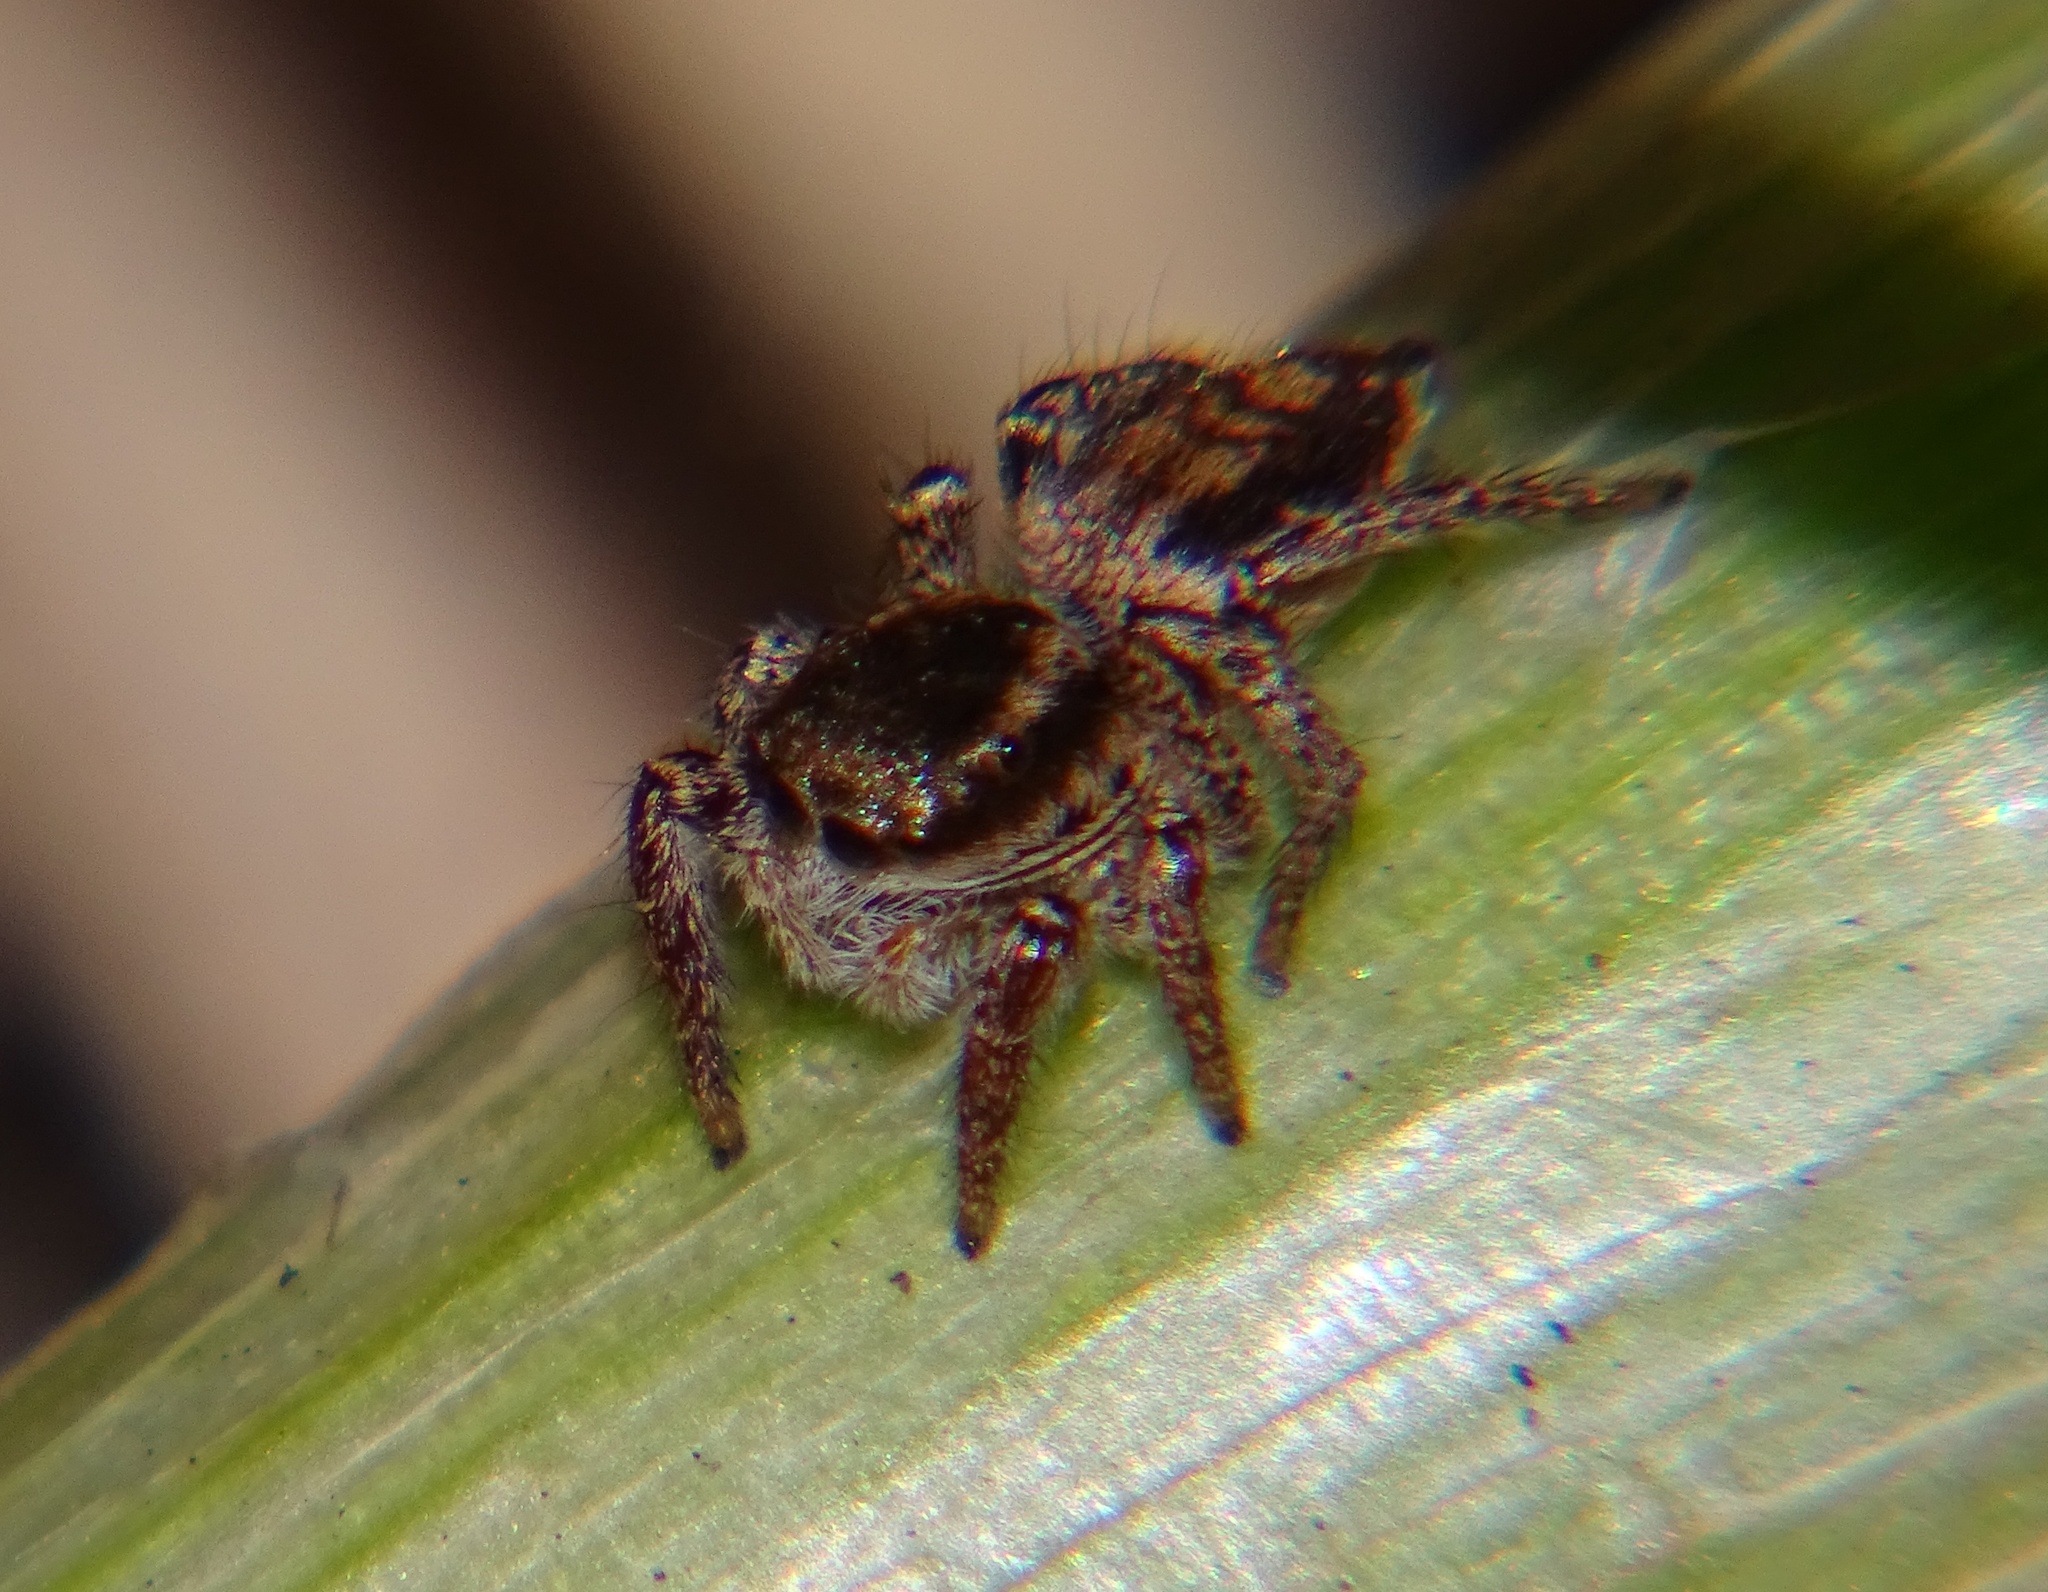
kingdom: Animalia
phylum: Arthropoda
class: Arachnida
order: Araneae
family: Salticidae
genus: Habronattus
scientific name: Habronattus pyrrithrix
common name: Jumping spider
